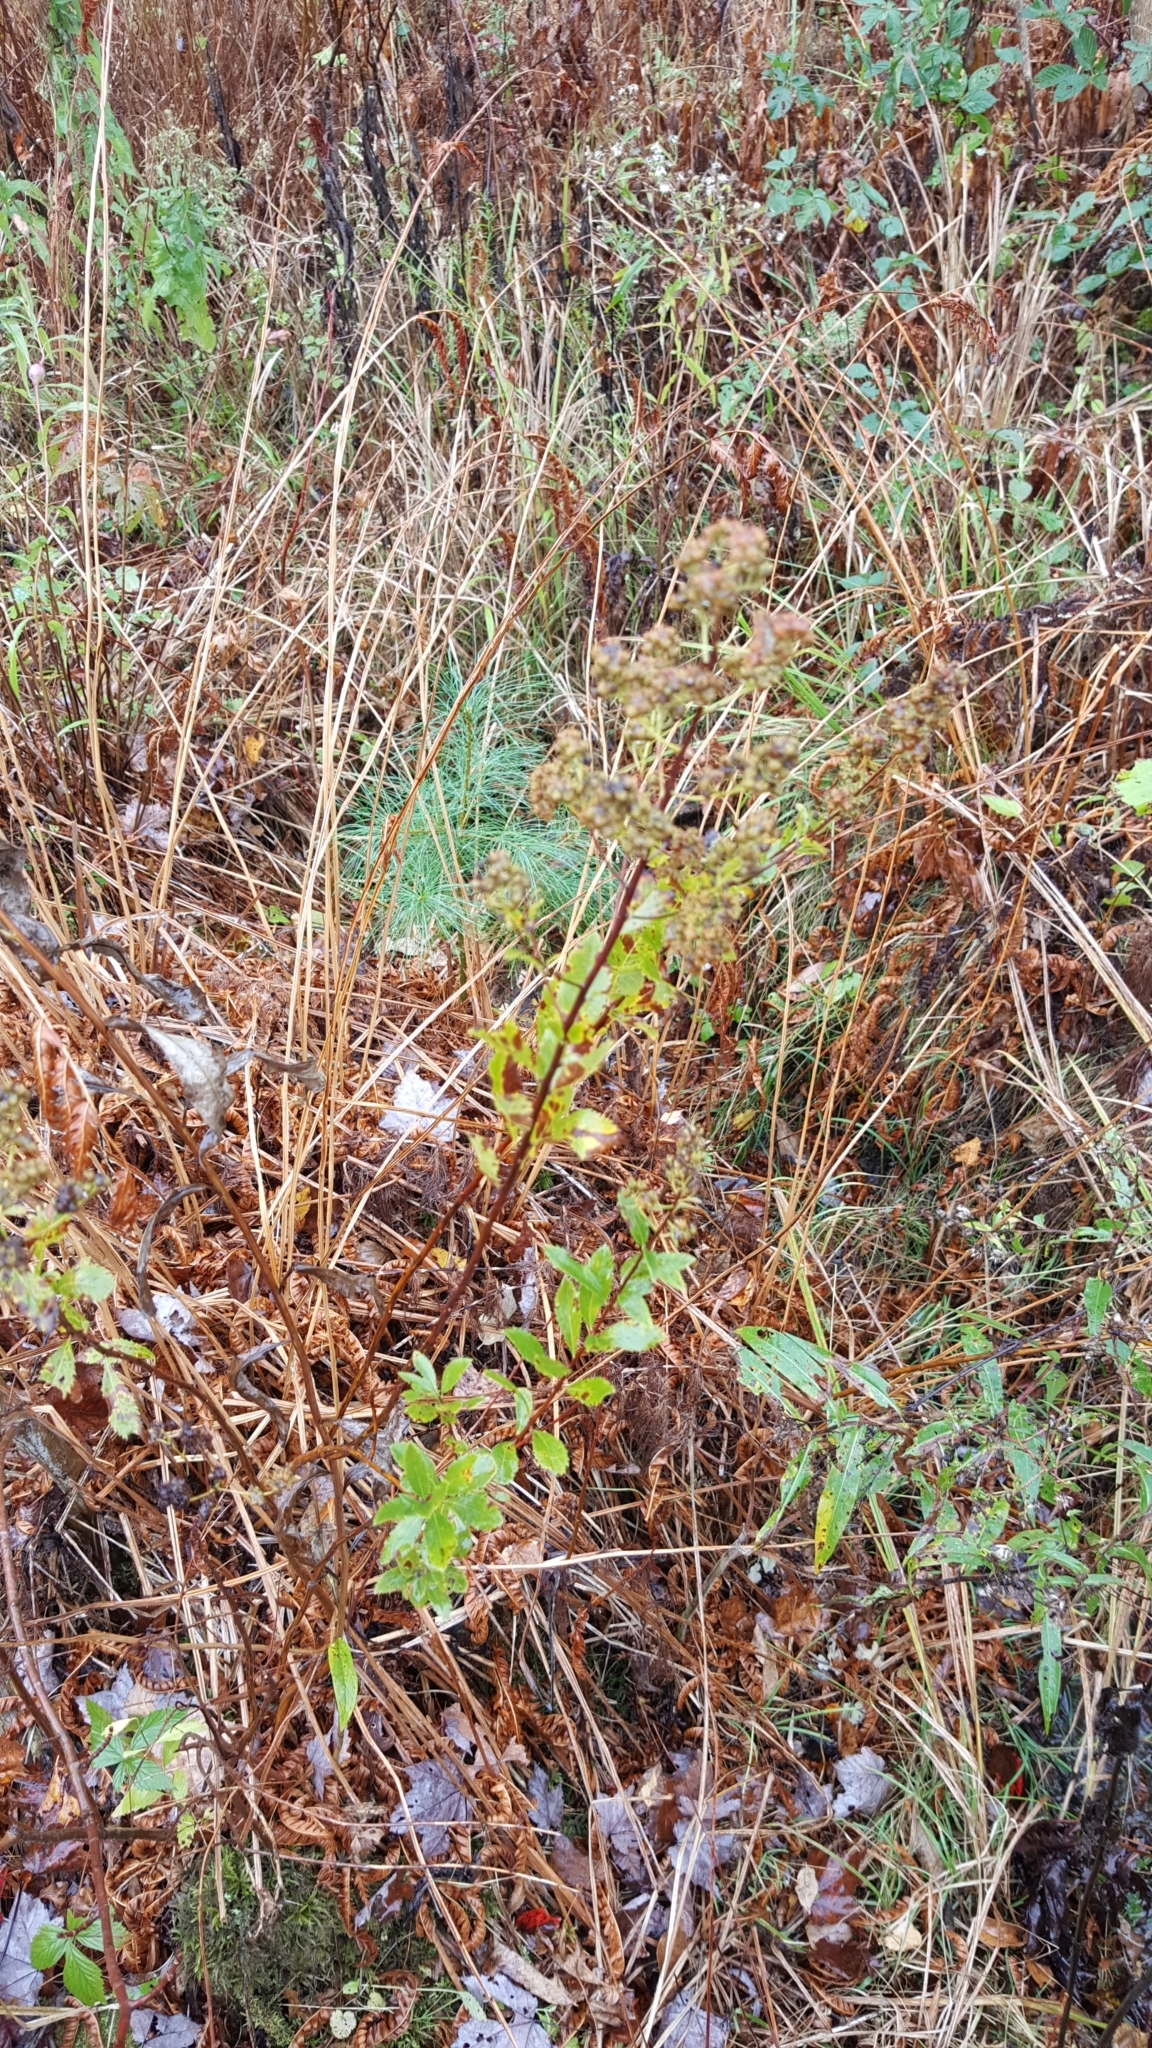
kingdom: Plantae
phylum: Tracheophyta
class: Magnoliopsida
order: Rosales
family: Rosaceae
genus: Spiraea
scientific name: Spiraea alba
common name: Pale bridewort
